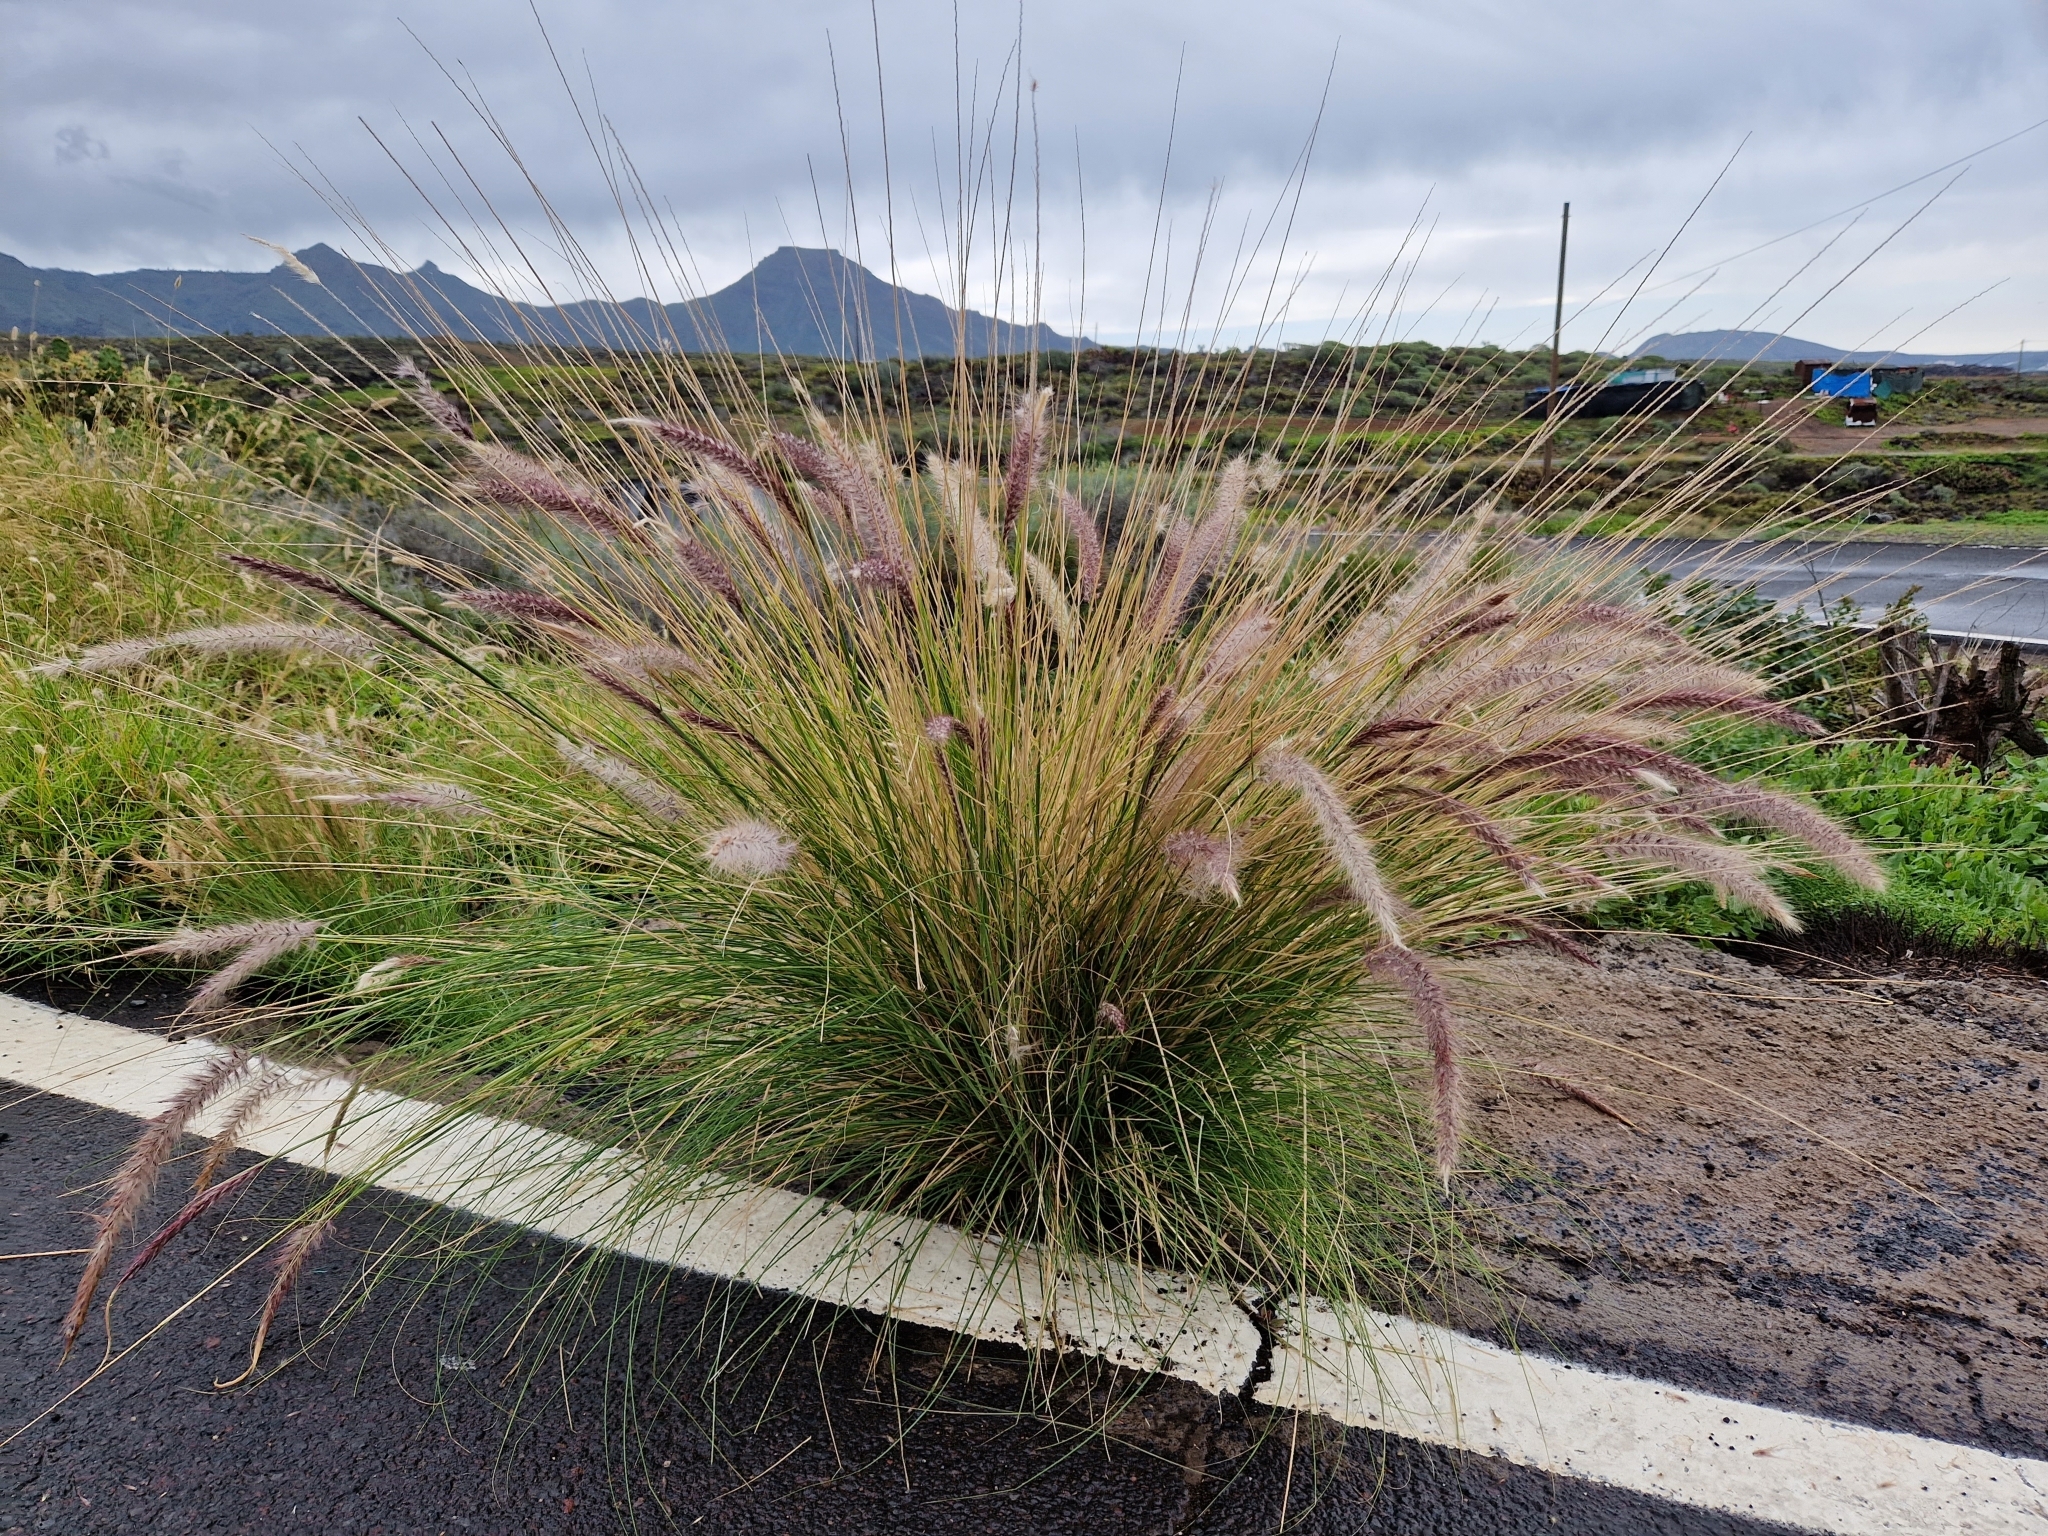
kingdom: Plantae
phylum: Tracheophyta
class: Liliopsida
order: Poales
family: Poaceae
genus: Cenchrus
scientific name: Cenchrus setaceus
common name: Crimson fountaingrass
